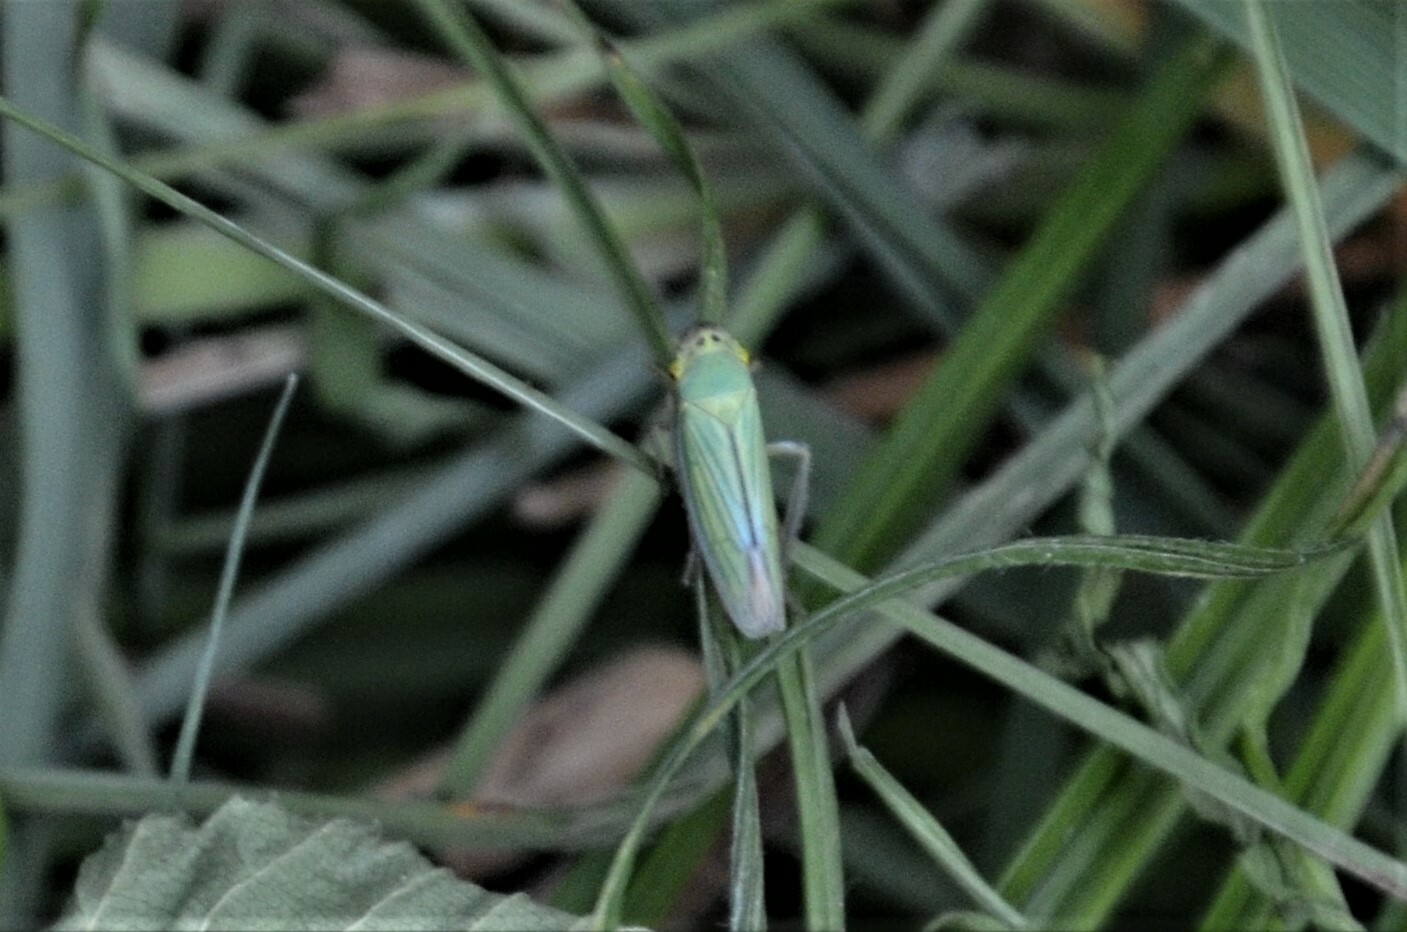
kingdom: Animalia
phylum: Arthropoda
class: Insecta
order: Hemiptera
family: Cicadellidae
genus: Cicadella
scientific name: Cicadella viridis
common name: Leafhopper
